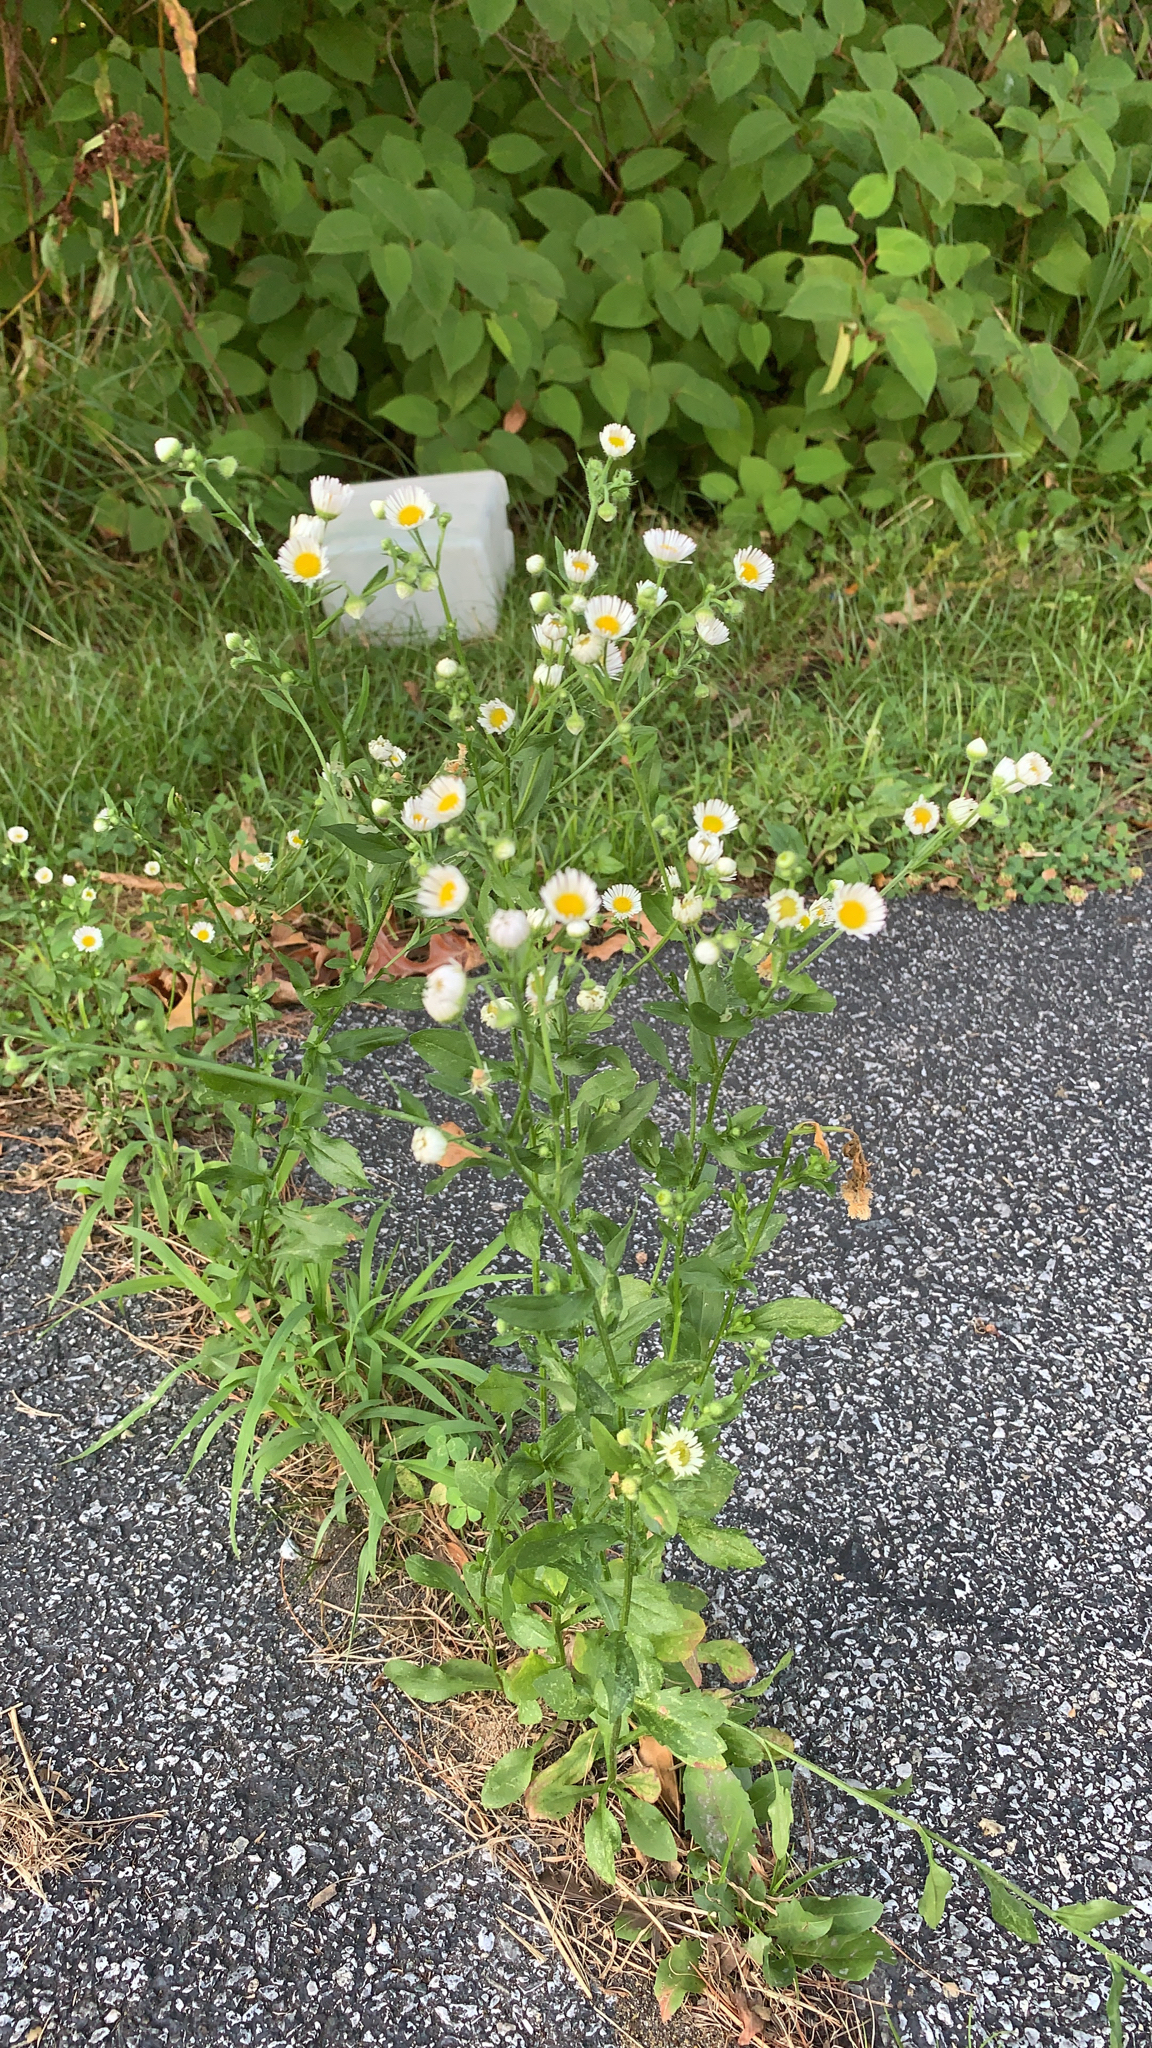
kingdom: Plantae
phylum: Tracheophyta
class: Magnoliopsida
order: Asterales
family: Asteraceae
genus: Erigeron
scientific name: Erigeron
